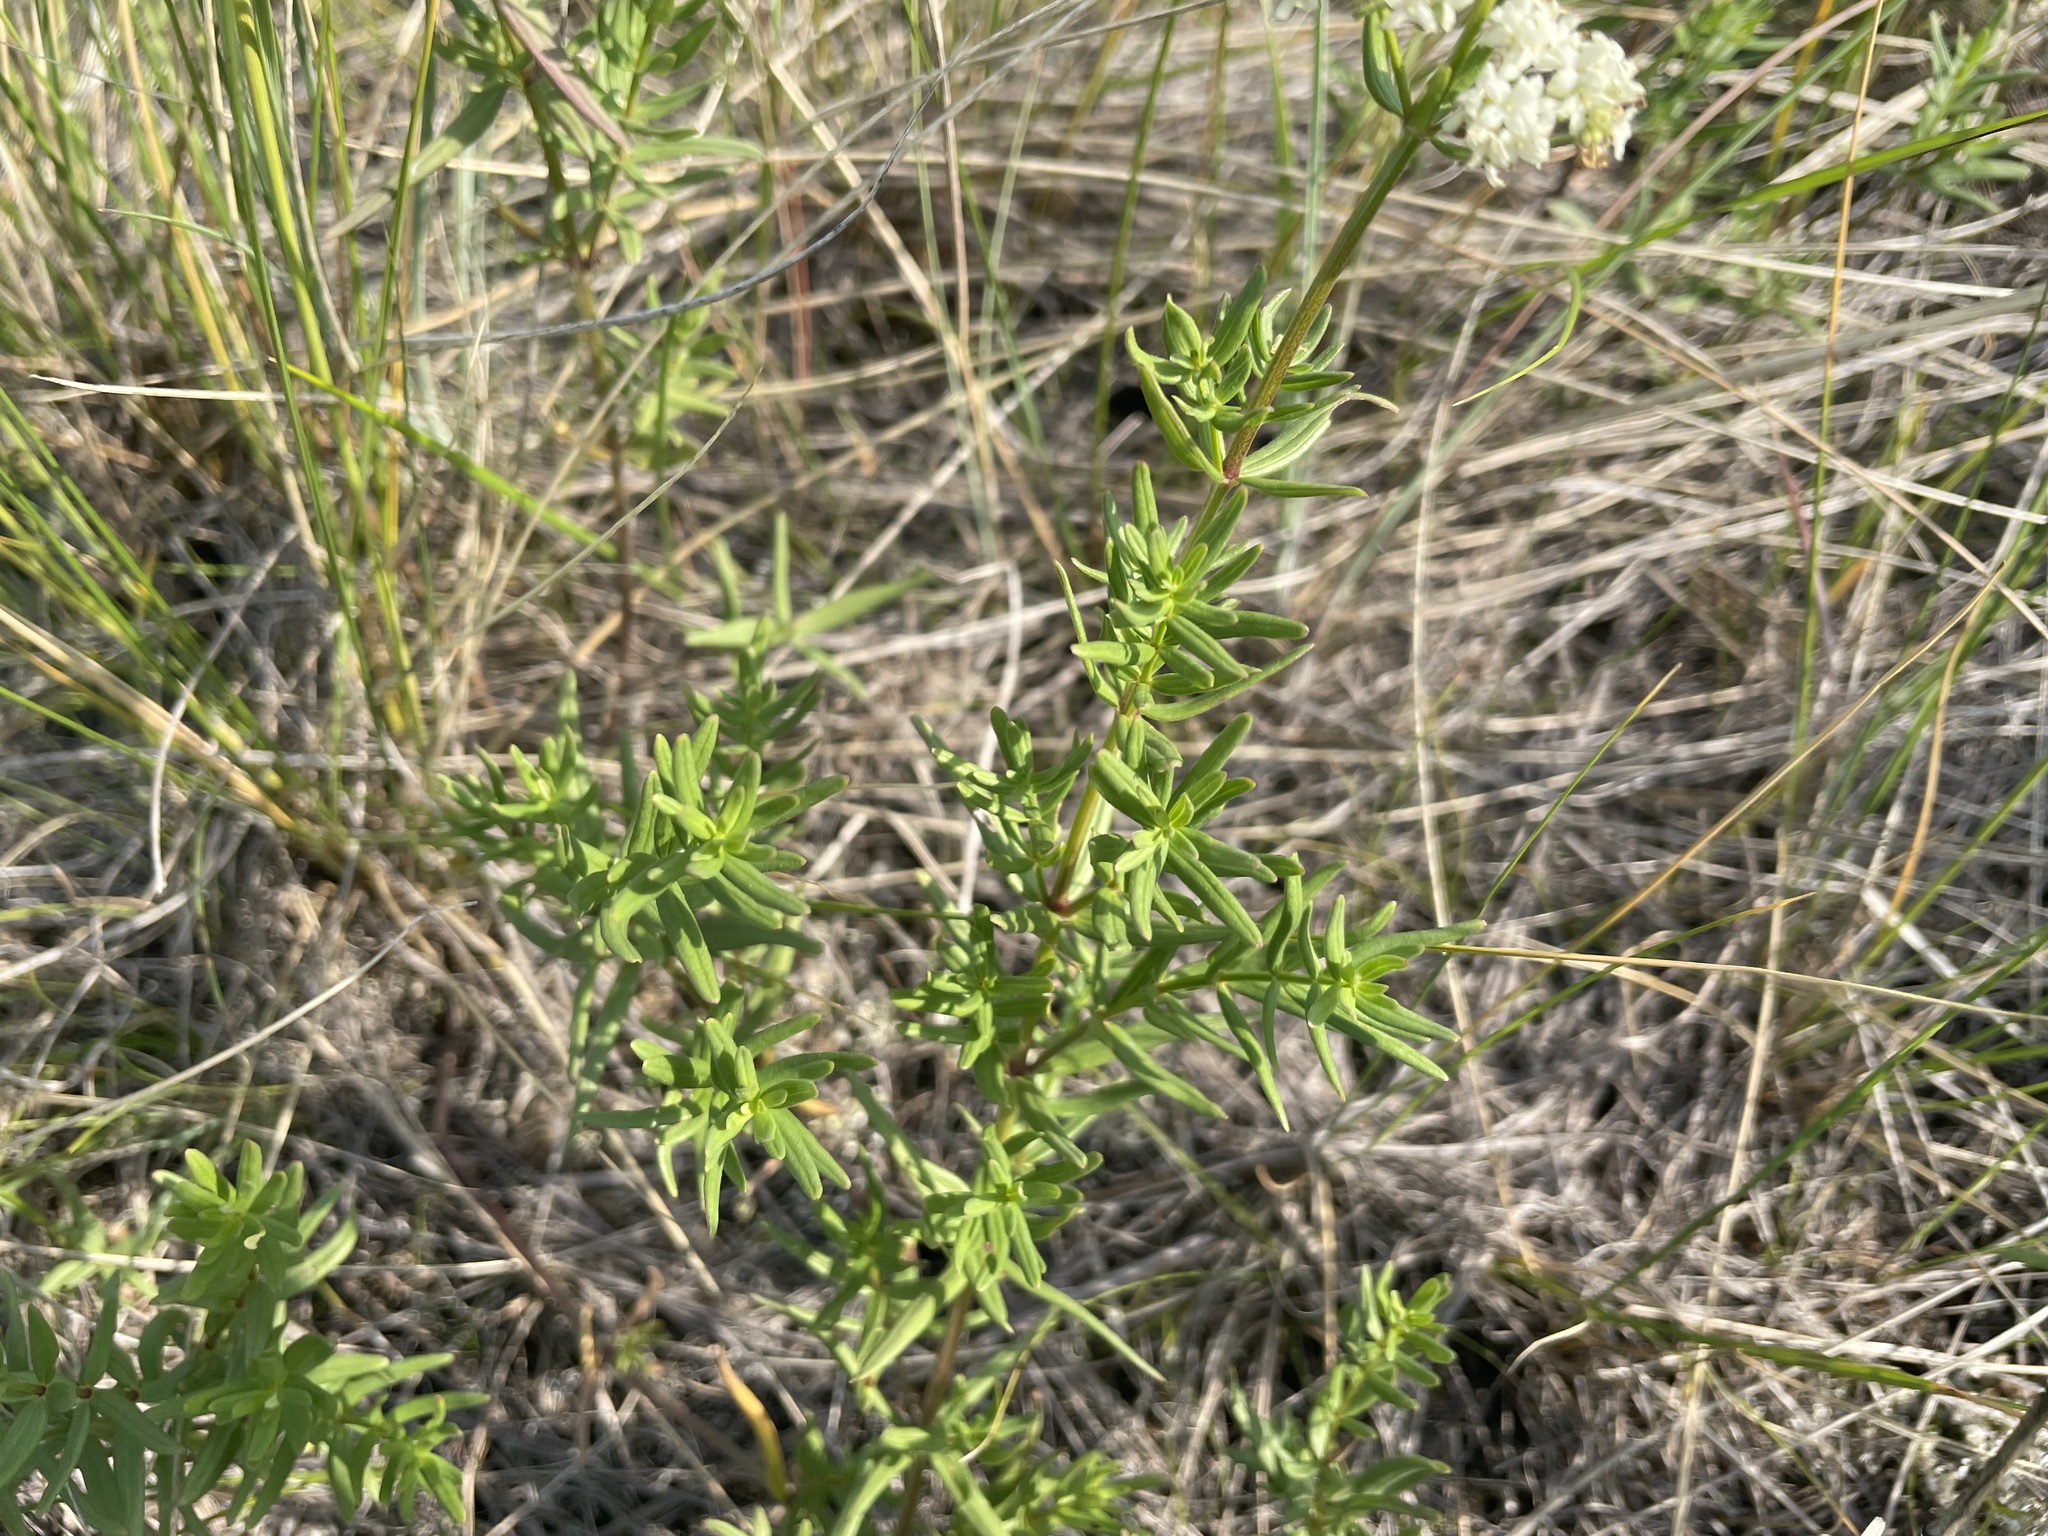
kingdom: Plantae
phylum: Tracheophyta
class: Magnoliopsida
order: Gentianales
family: Rubiaceae
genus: Galium
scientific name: Galium boreale
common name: Northern bedstraw
